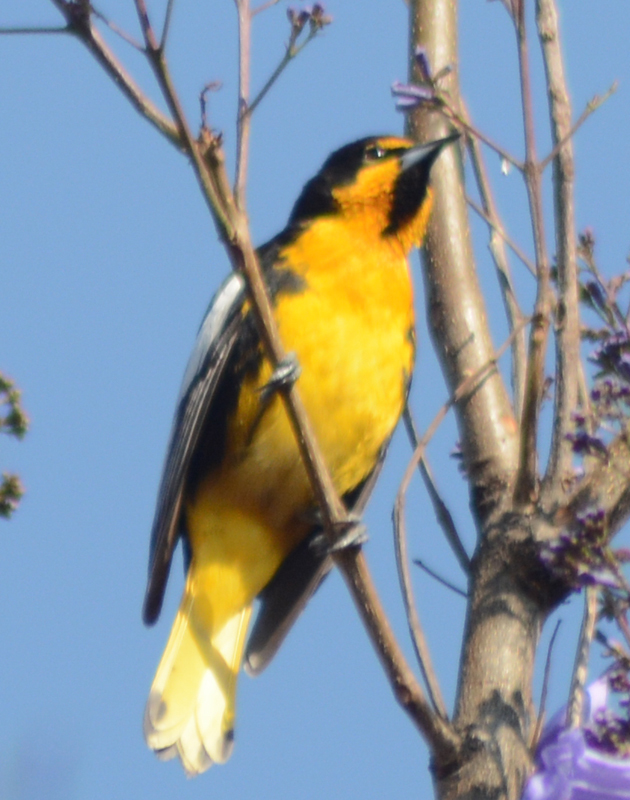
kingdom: Animalia
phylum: Chordata
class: Aves
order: Passeriformes
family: Icteridae
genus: Icterus
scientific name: Icterus abeillei
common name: Black-backed oriole
